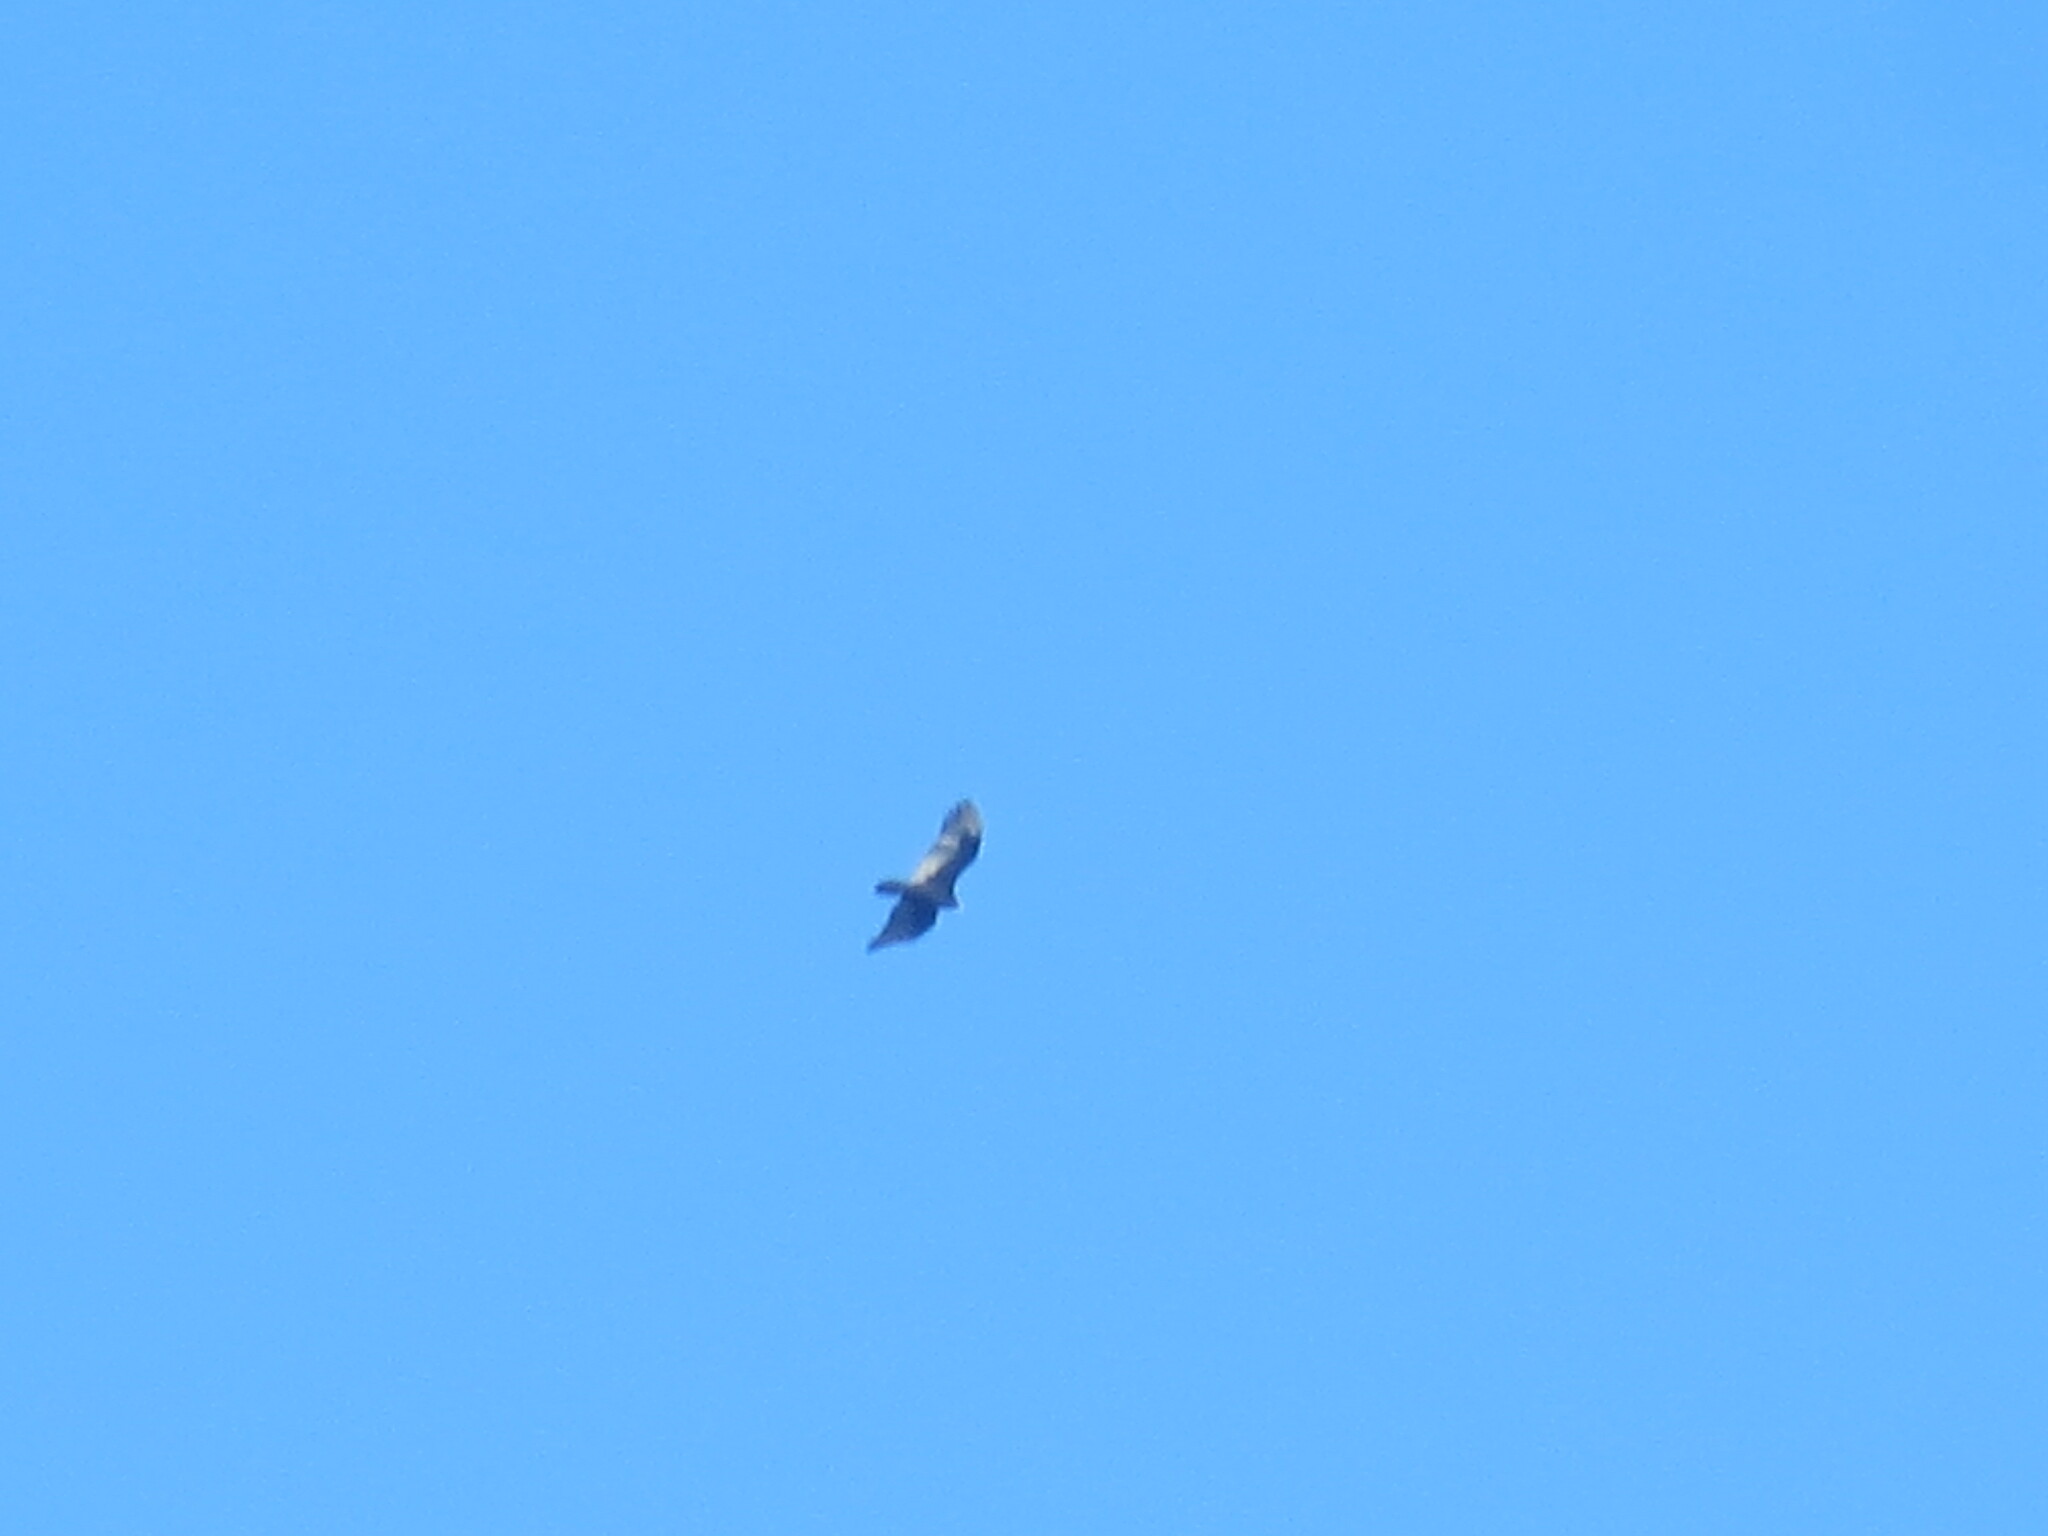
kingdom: Animalia
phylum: Chordata
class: Aves
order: Accipitriformes
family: Cathartidae
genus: Cathartes
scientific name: Cathartes aura
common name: Turkey vulture
